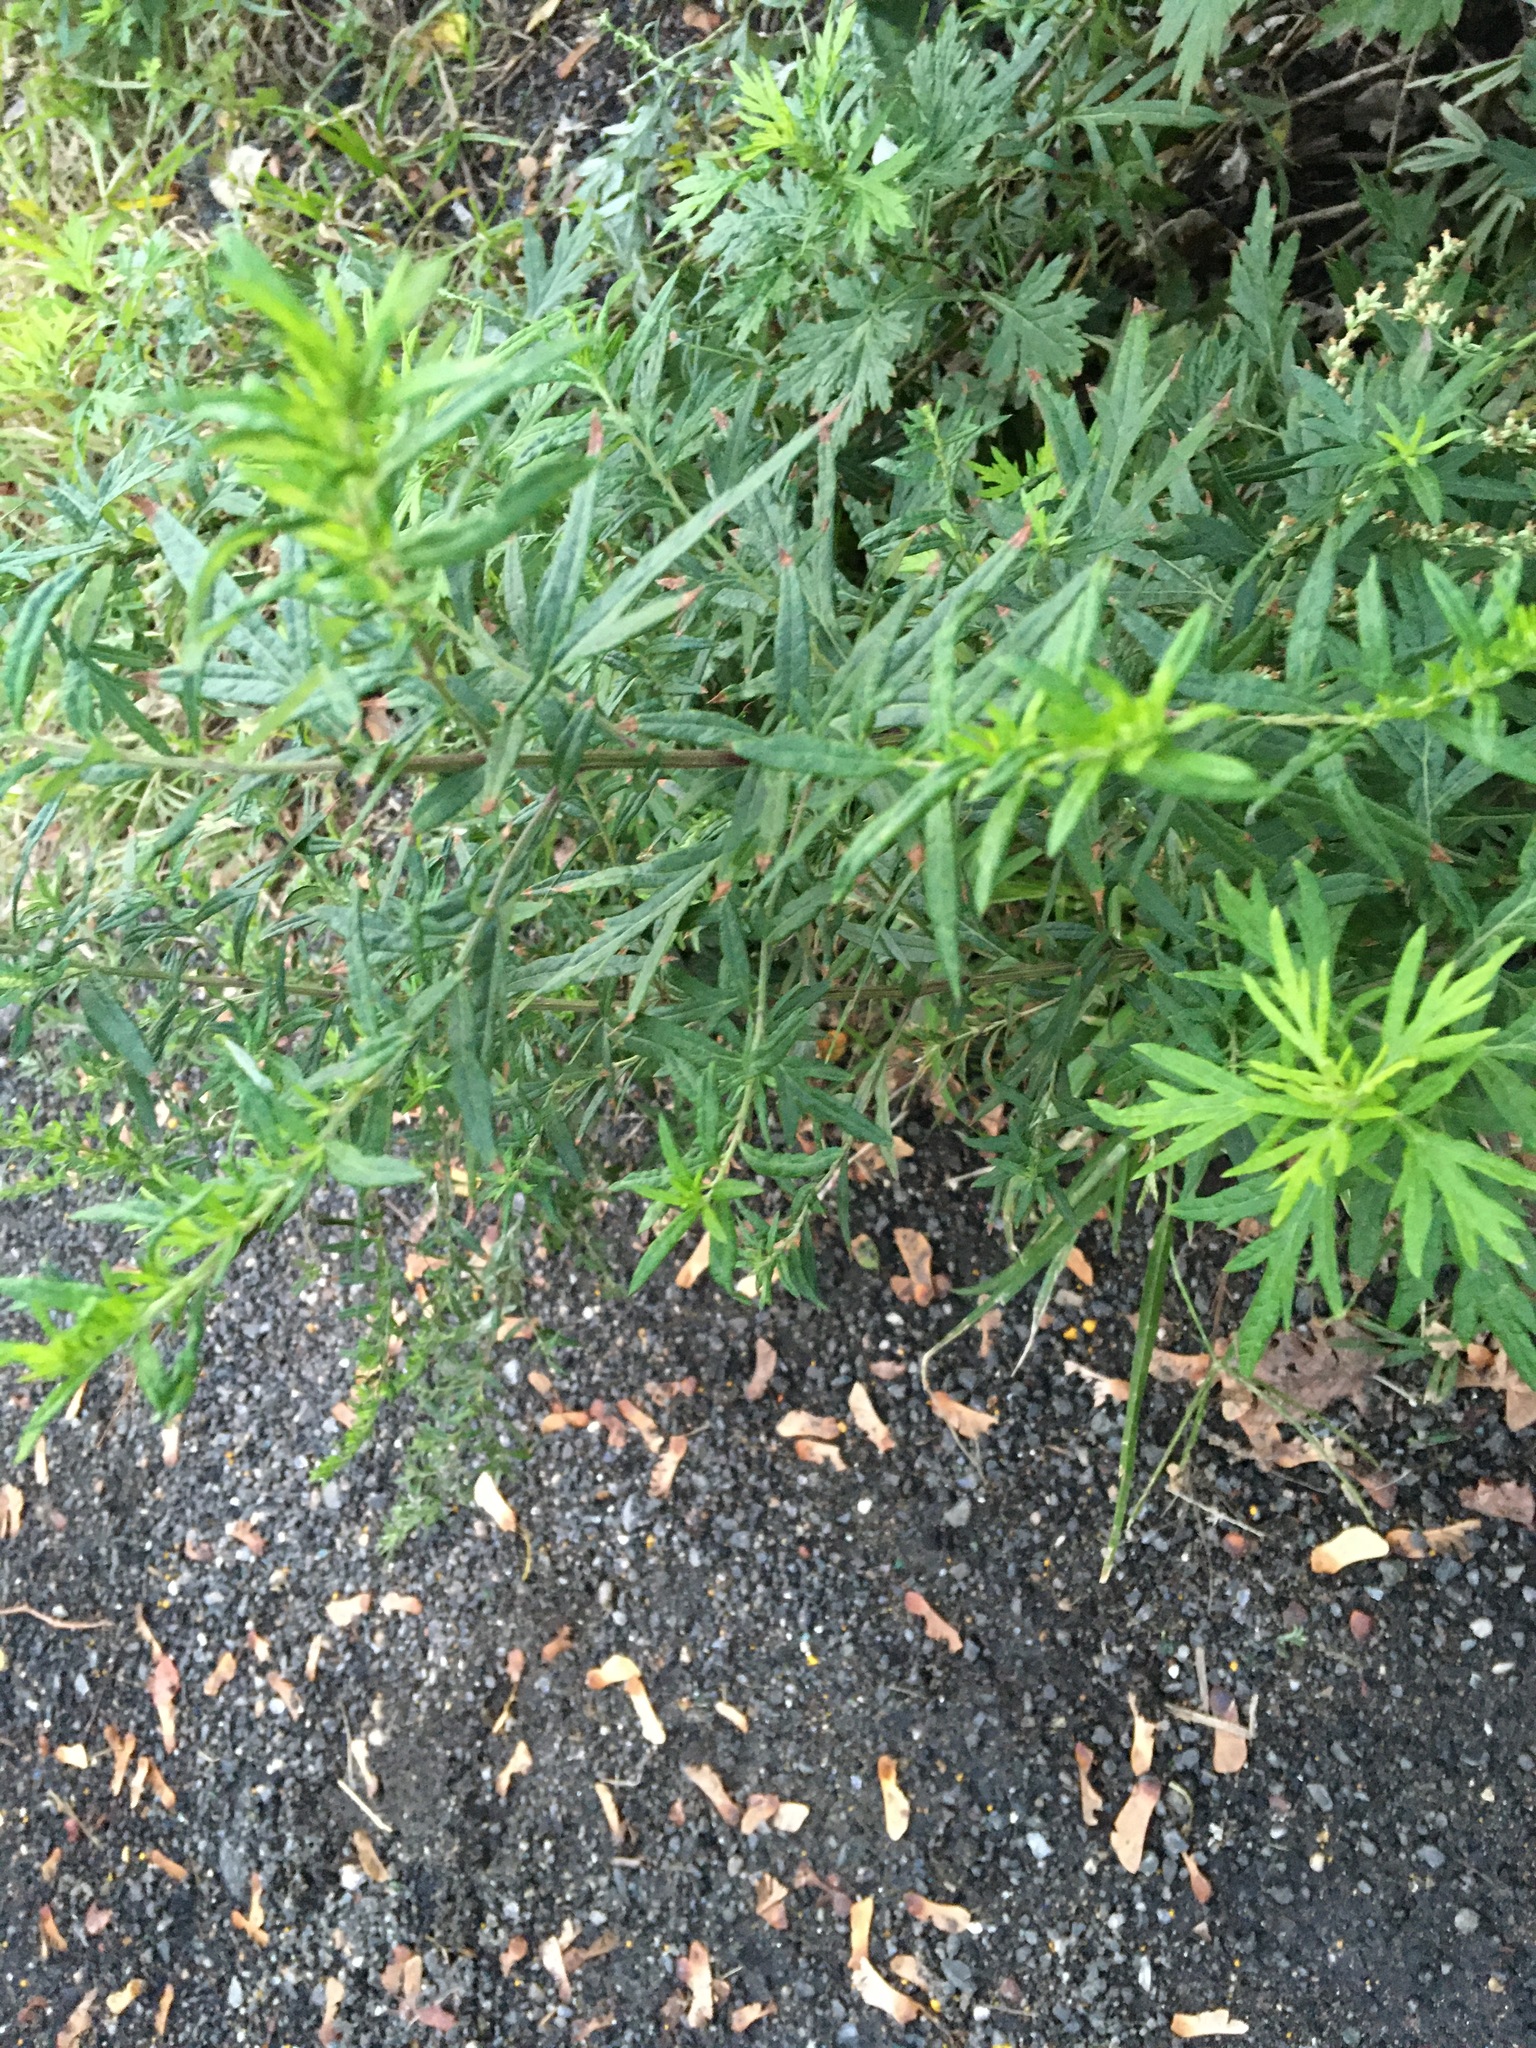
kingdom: Plantae
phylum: Tracheophyta
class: Magnoliopsida
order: Asterales
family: Asteraceae
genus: Artemisia
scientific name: Artemisia vulgaris
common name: Mugwort
